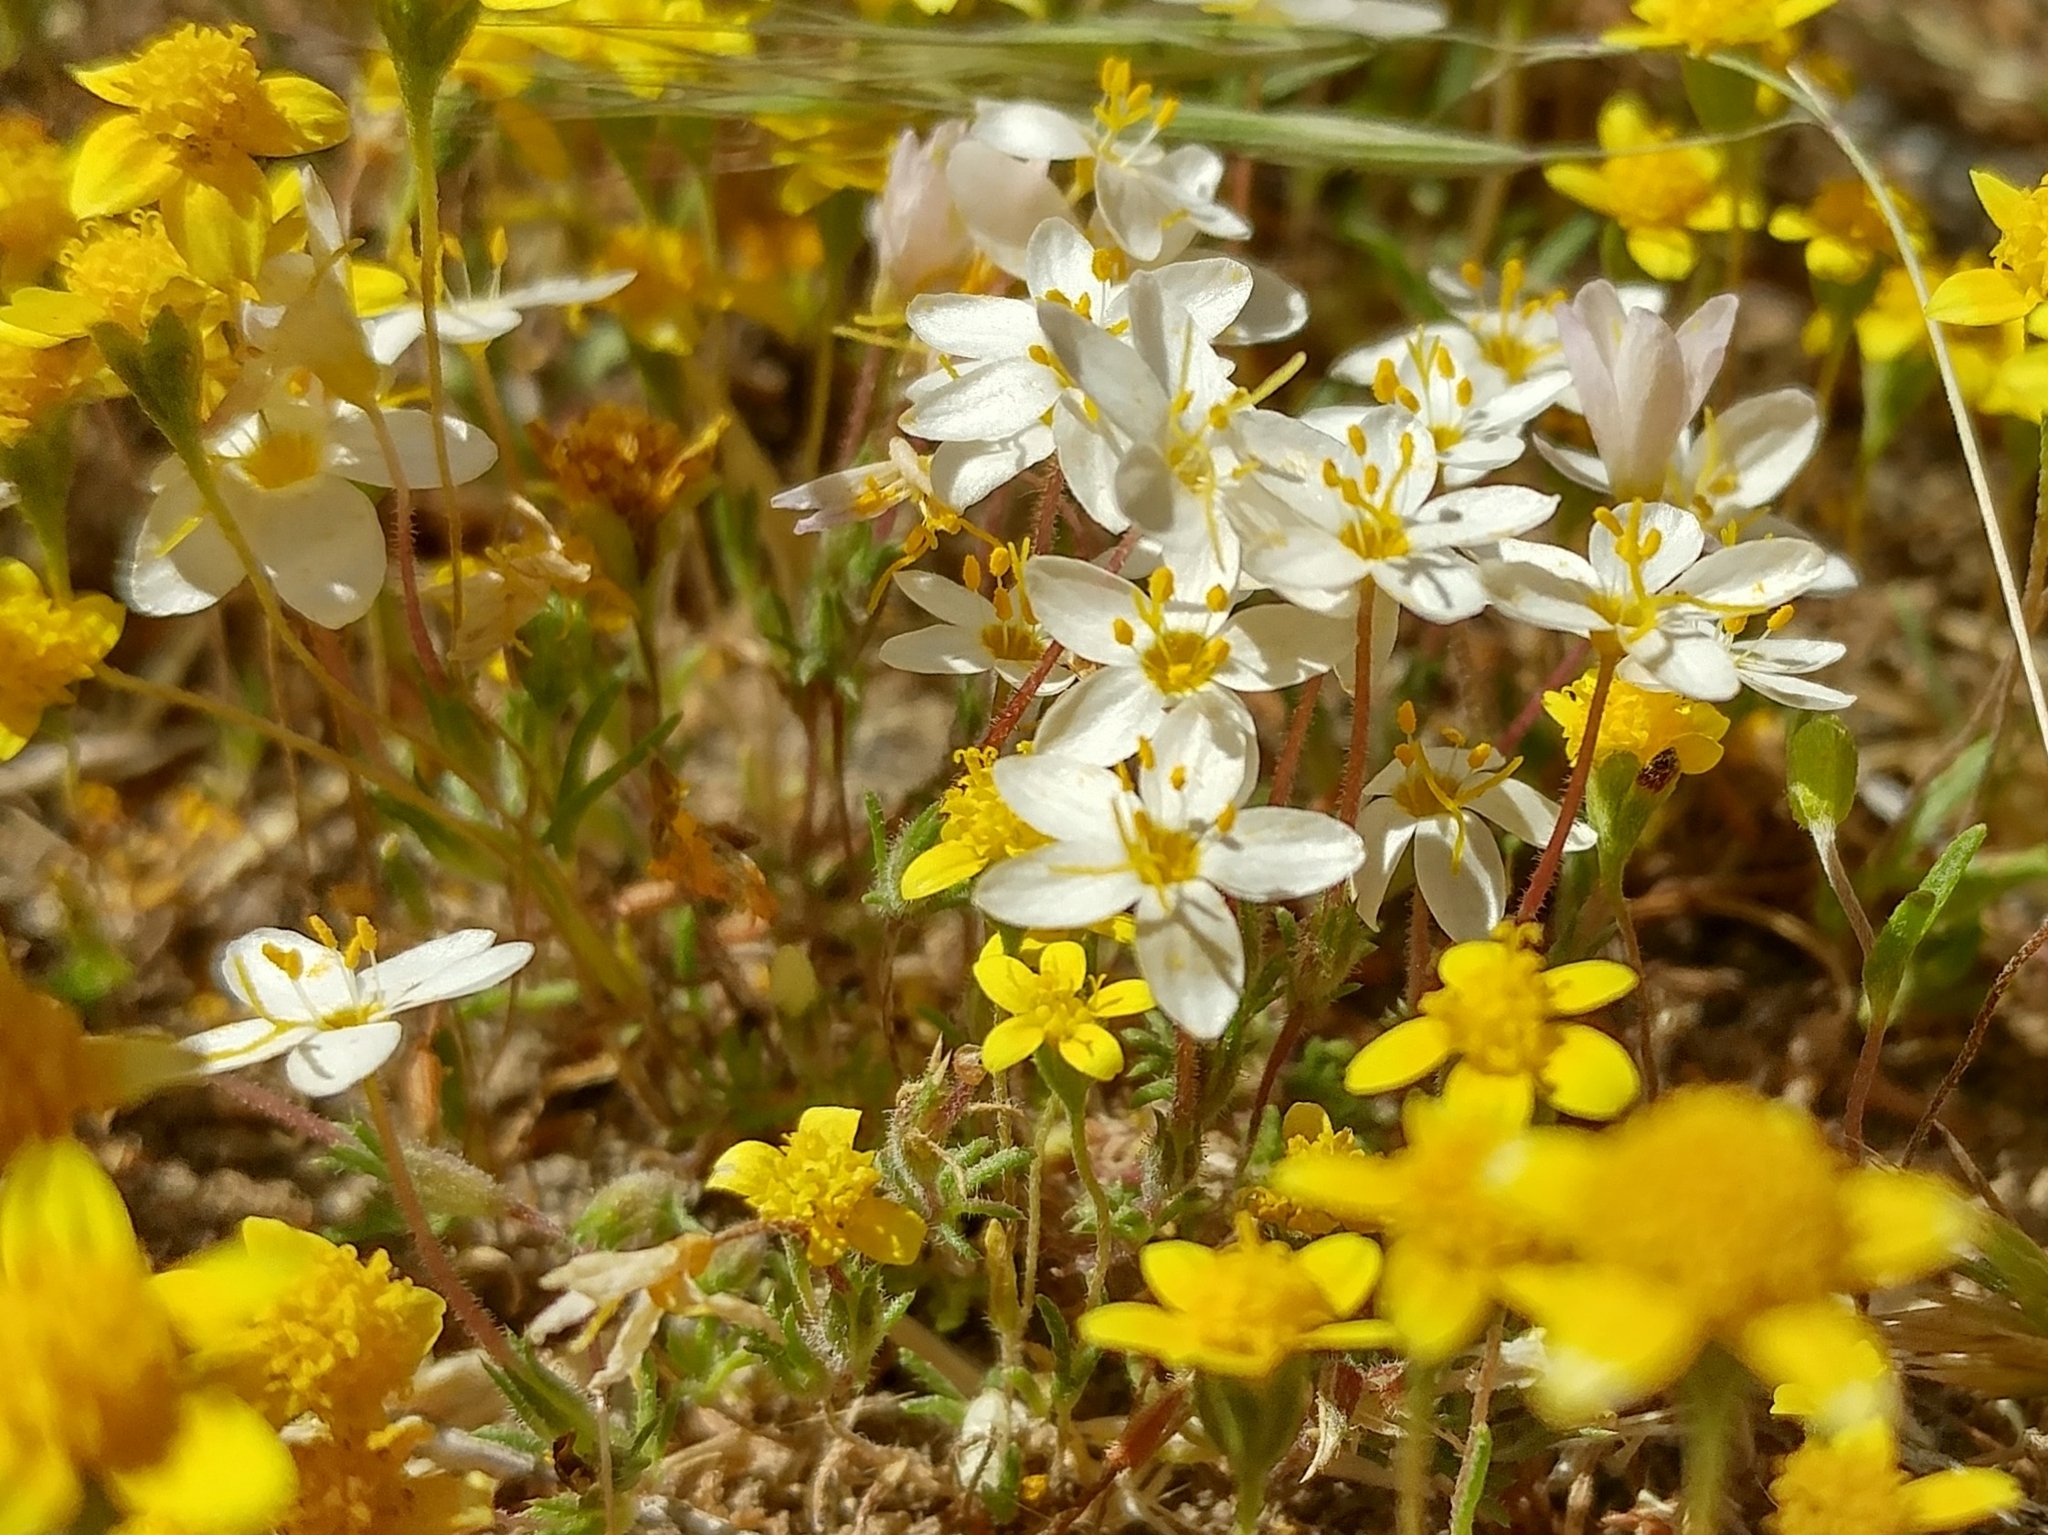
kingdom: Plantae
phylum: Tracheophyta
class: Magnoliopsida
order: Ericales
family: Polemoniaceae
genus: Leptosiphon
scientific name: Leptosiphon parviflorus
